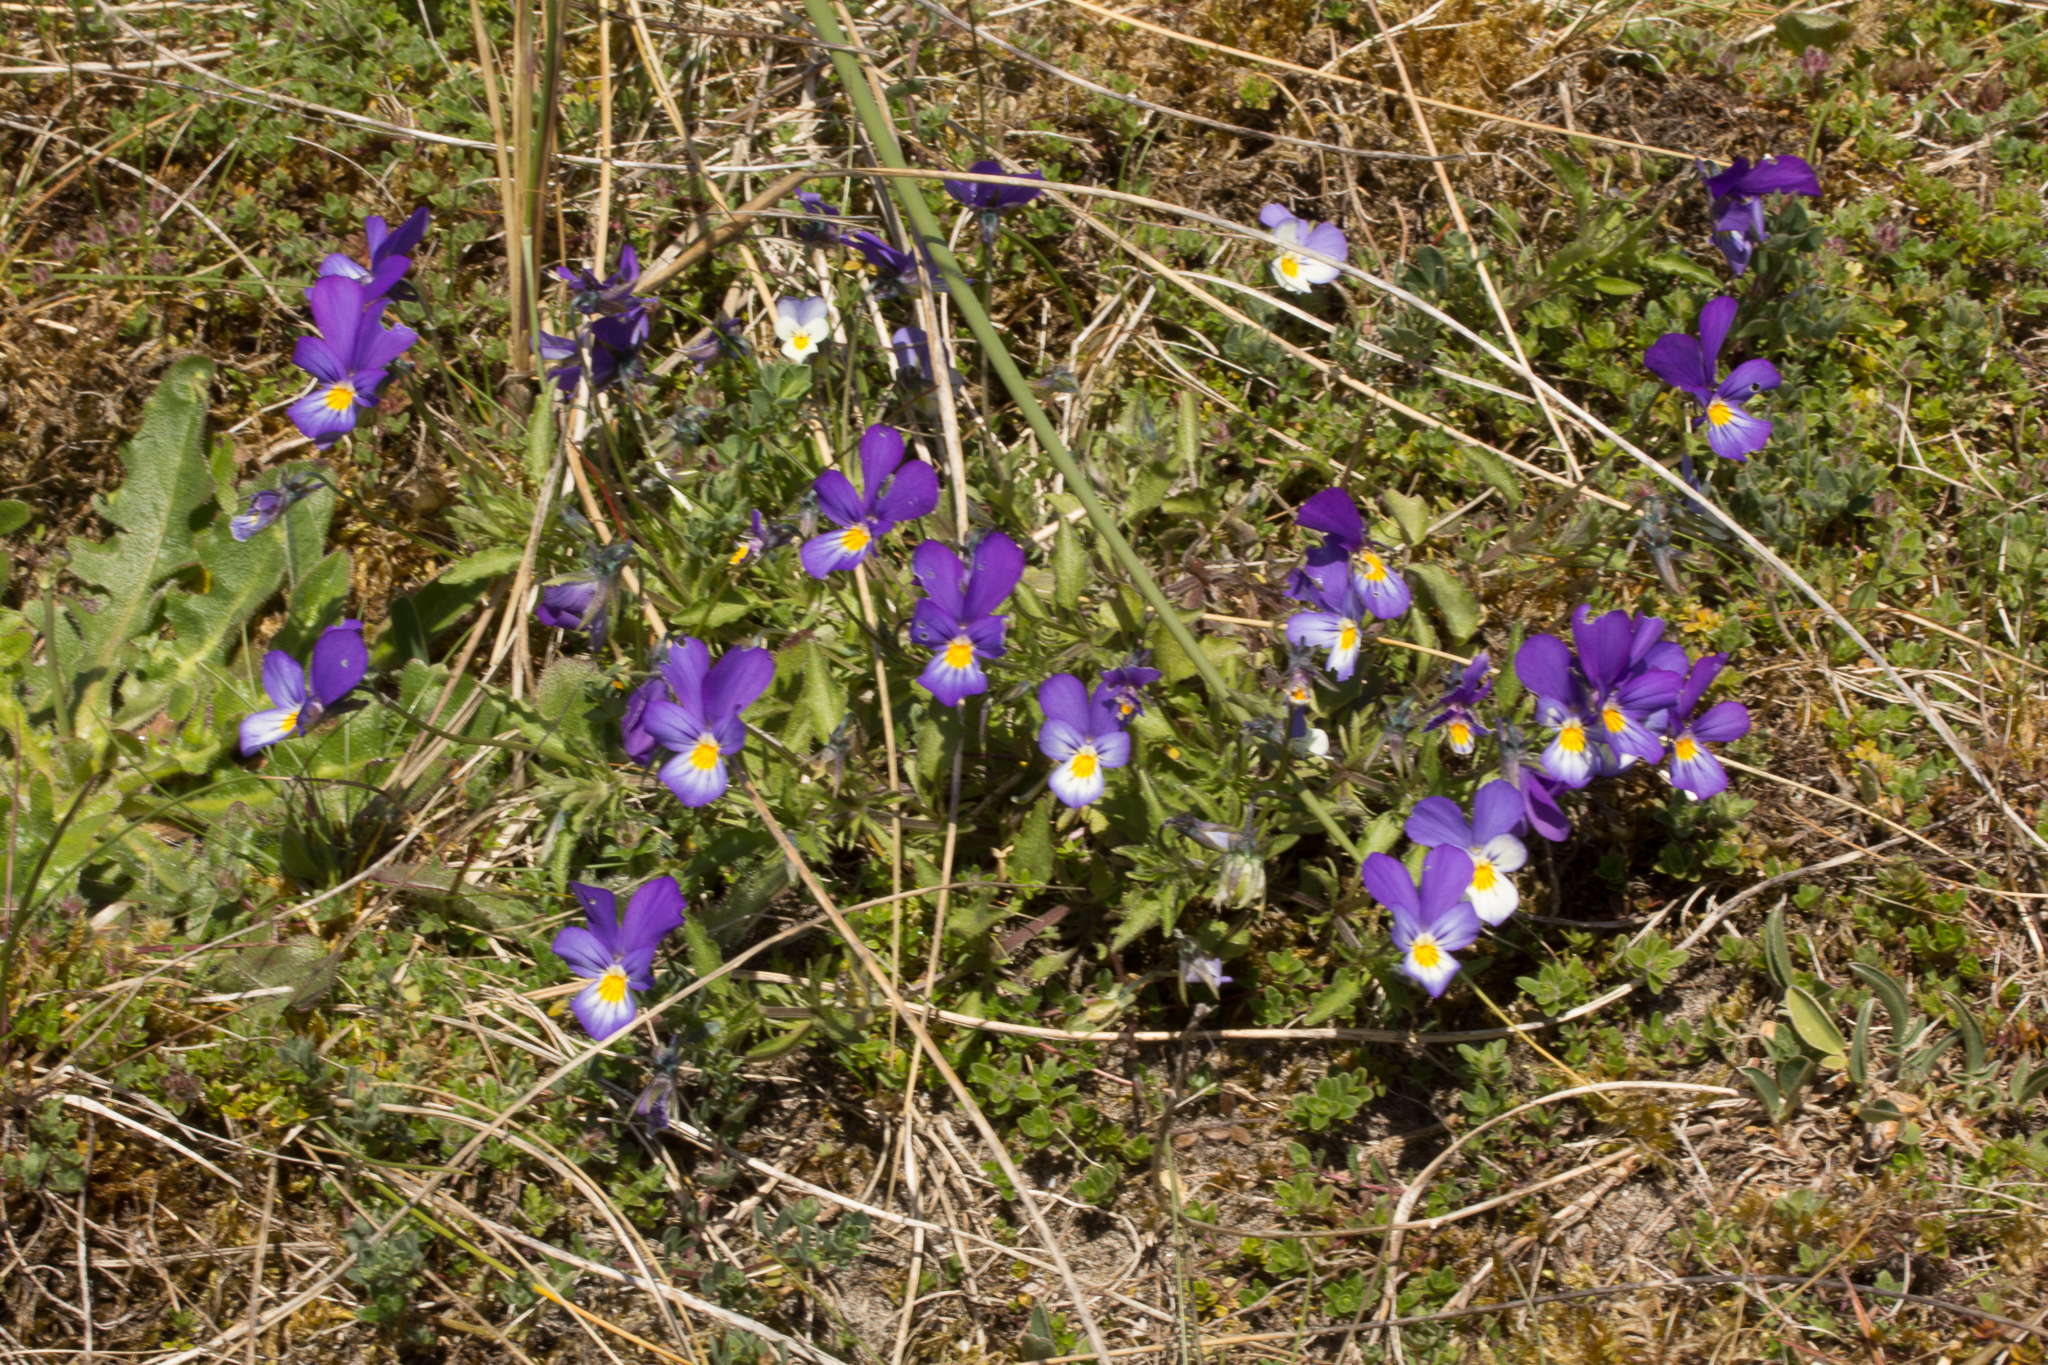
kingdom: Plantae
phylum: Tracheophyta
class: Magnoliopsida
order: Malpighiales
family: Violaceae
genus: Viola
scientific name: Viola tricolor
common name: Pansy
